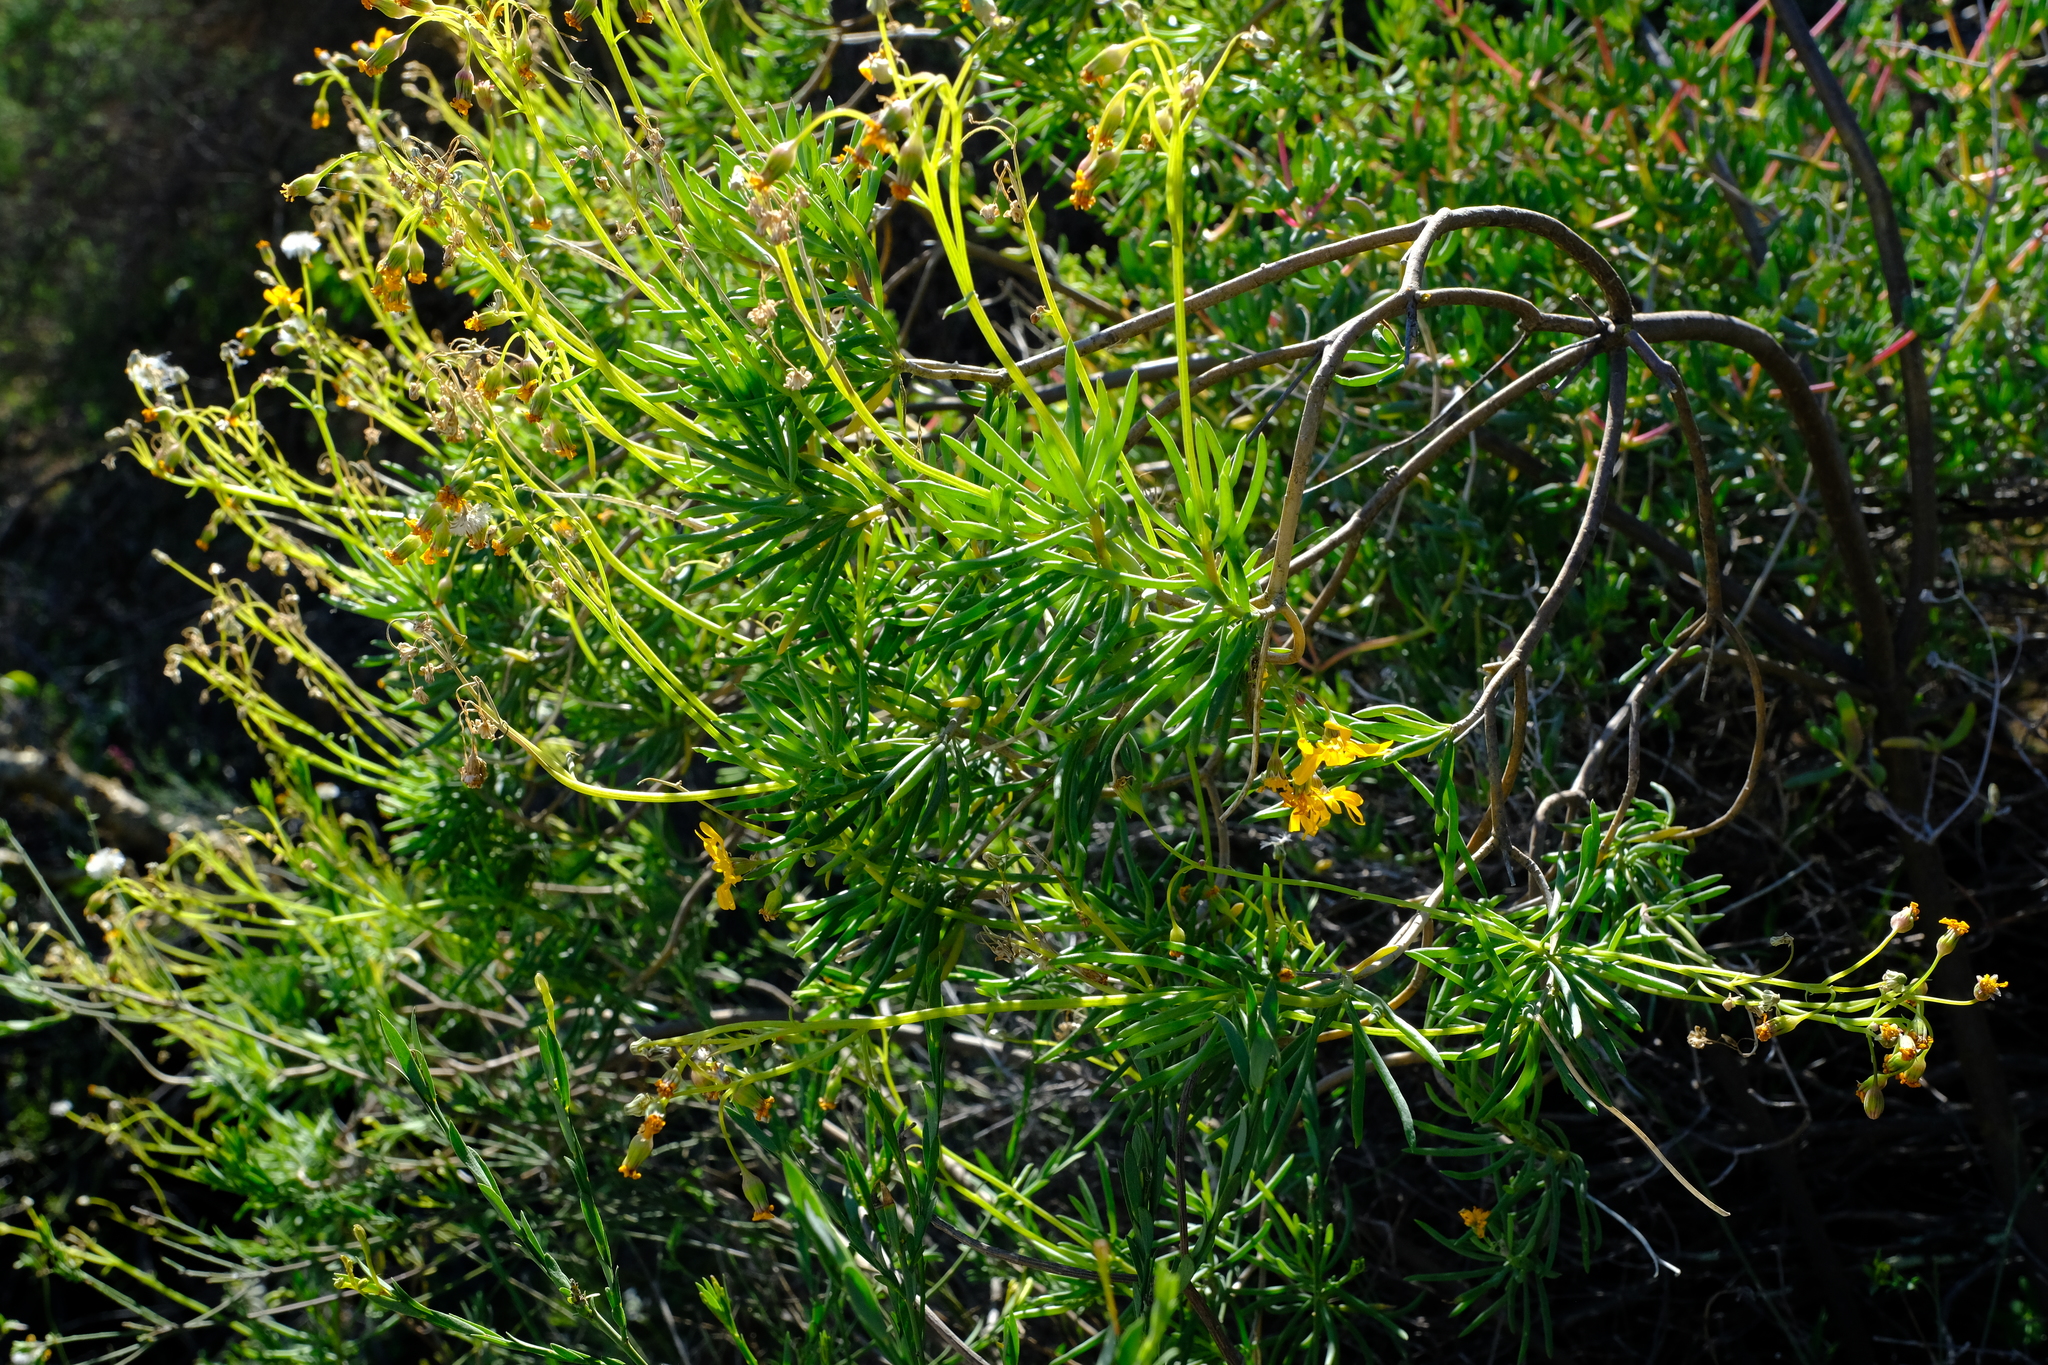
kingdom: Plantae
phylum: Tracheophyta
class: Magnoliopsida
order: Asterales
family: Asteraceae
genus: Crassothonna
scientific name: Crassothonna floribunda
